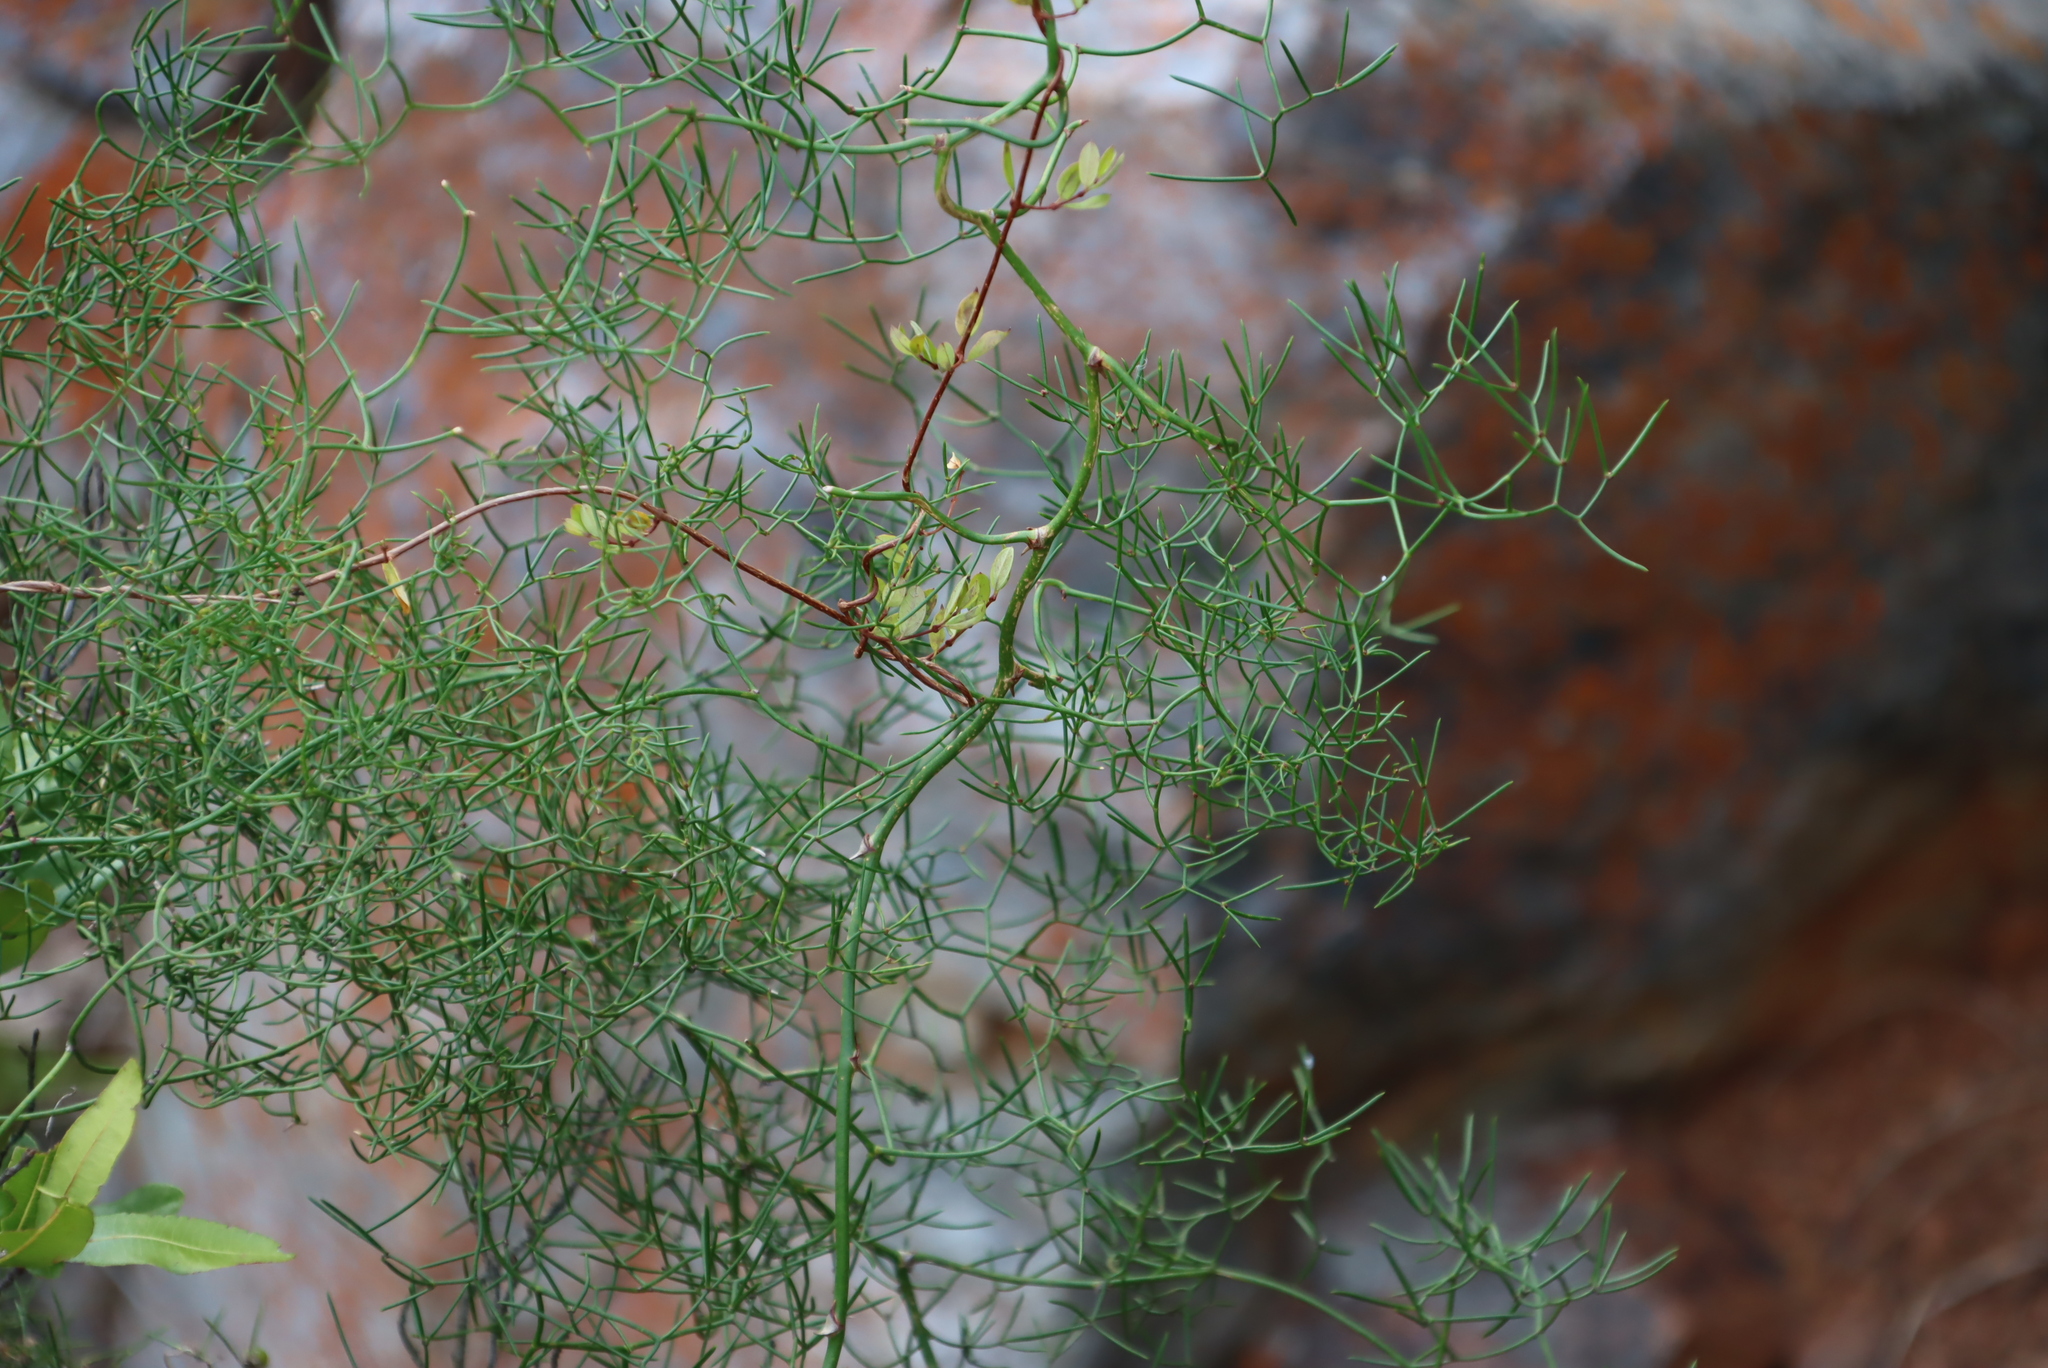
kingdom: Plantae
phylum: Tracheophyta
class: Liliopsida
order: Asparagales
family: Asparagaceae
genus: Asparagus
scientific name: Asparagus divaricatus
